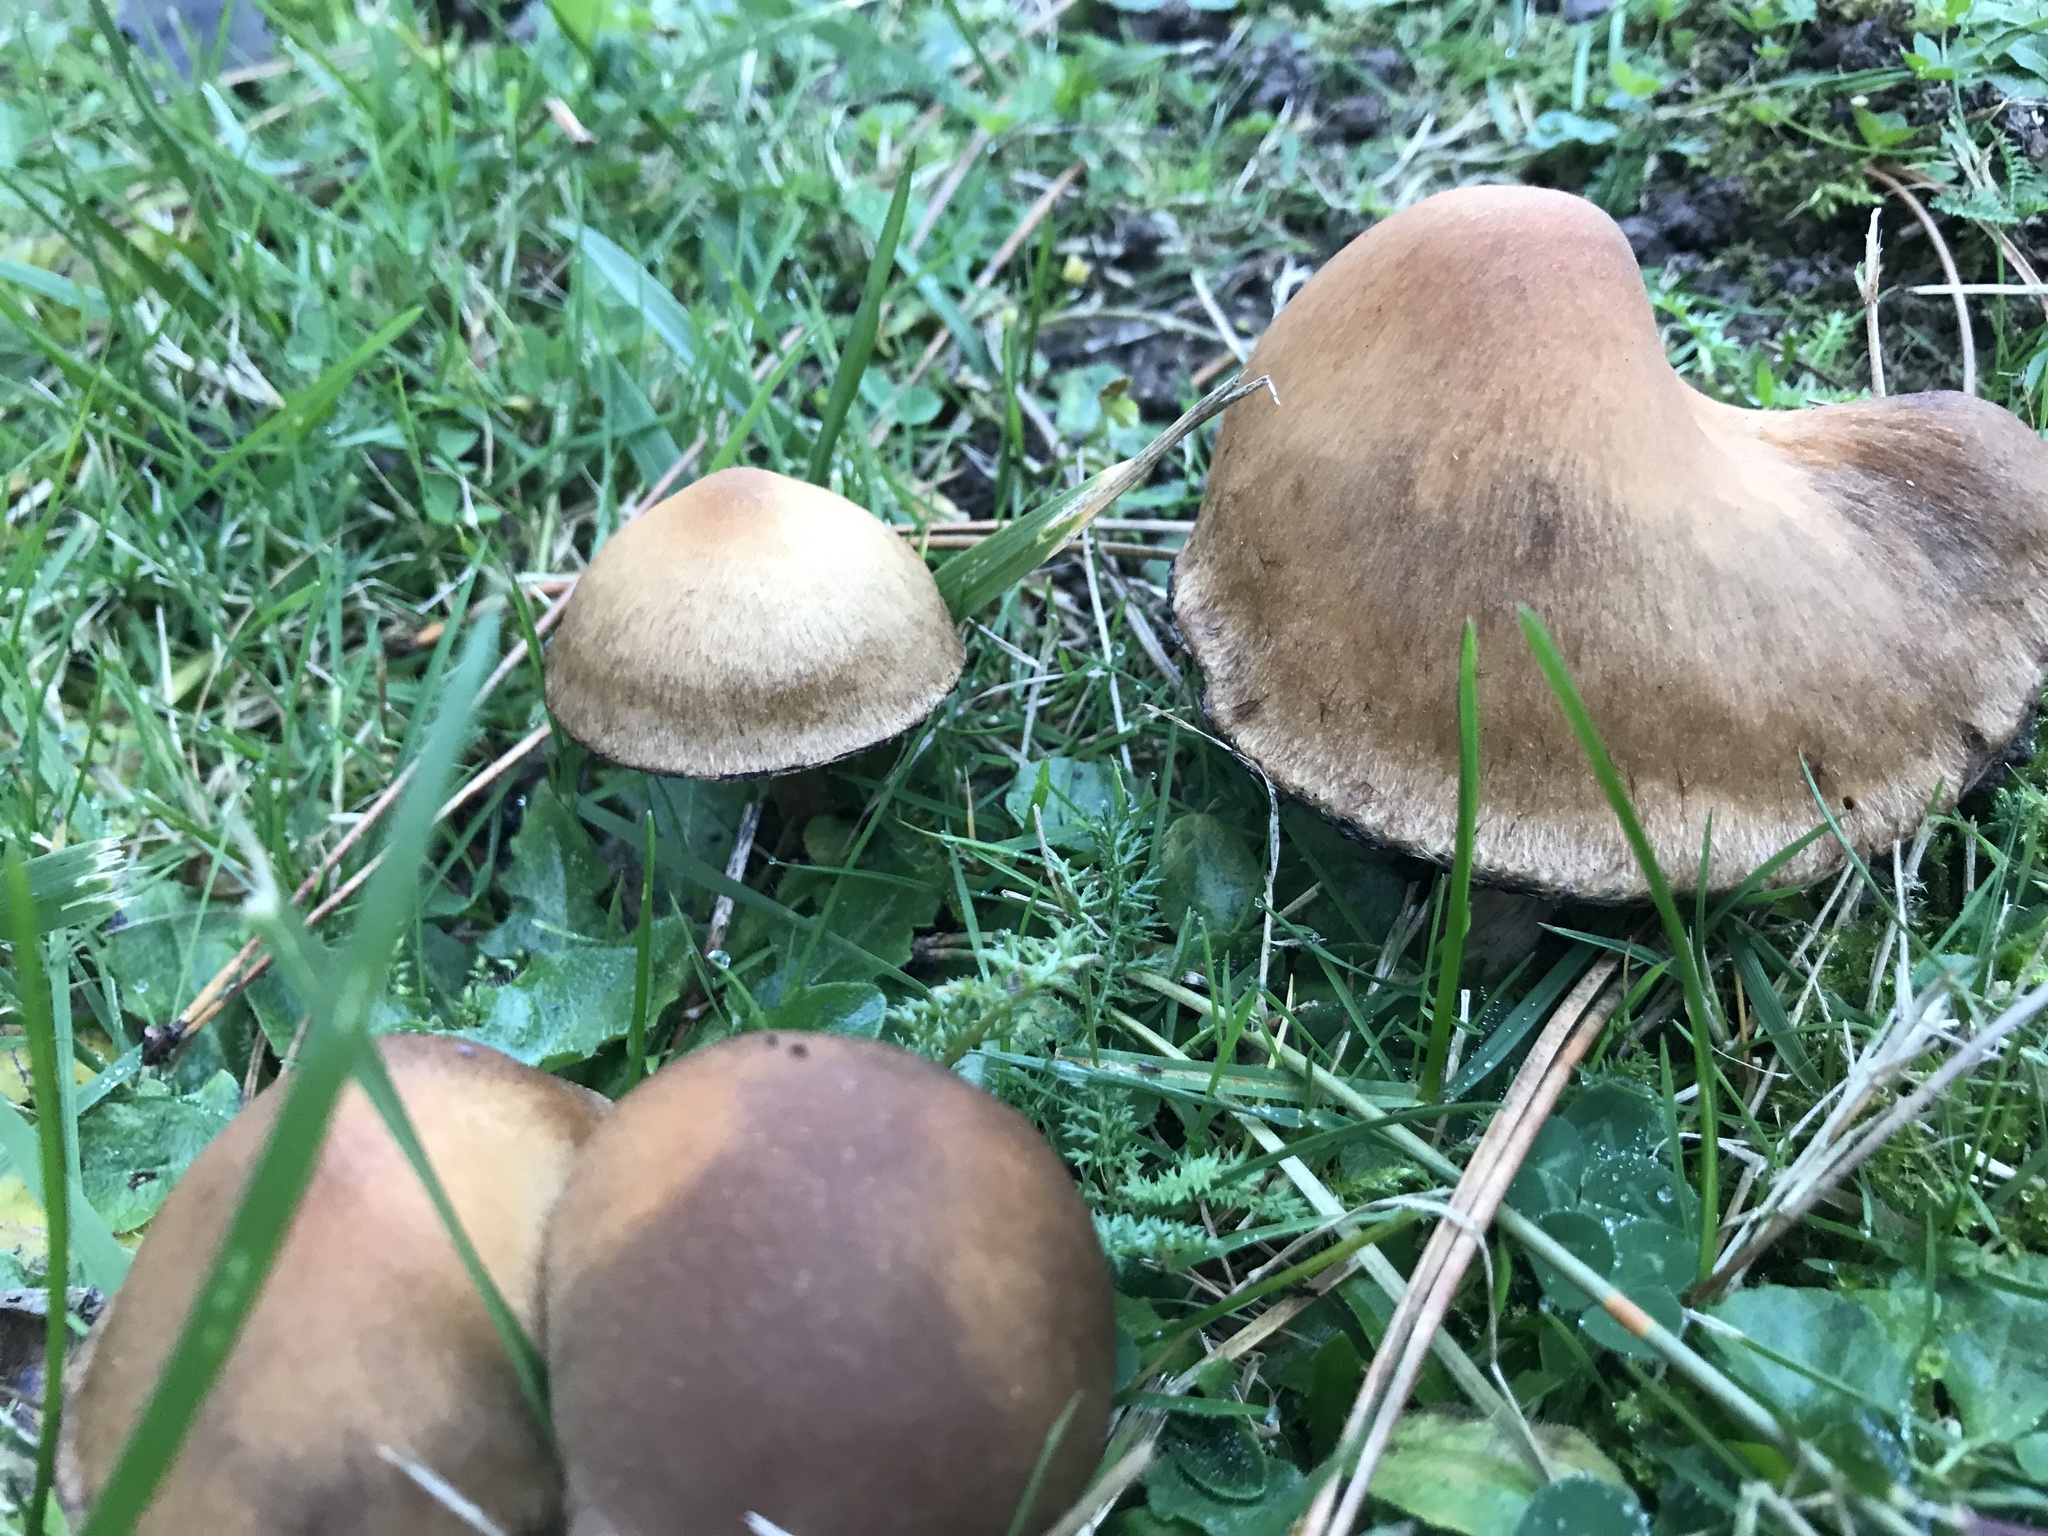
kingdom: Fungi
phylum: Basidiomycota
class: Agaricomycetes
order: Agaricales
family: Psathyrellaceae
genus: Lacrymaria
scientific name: Lacrymaria lacrymabunda
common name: Weeping widow
